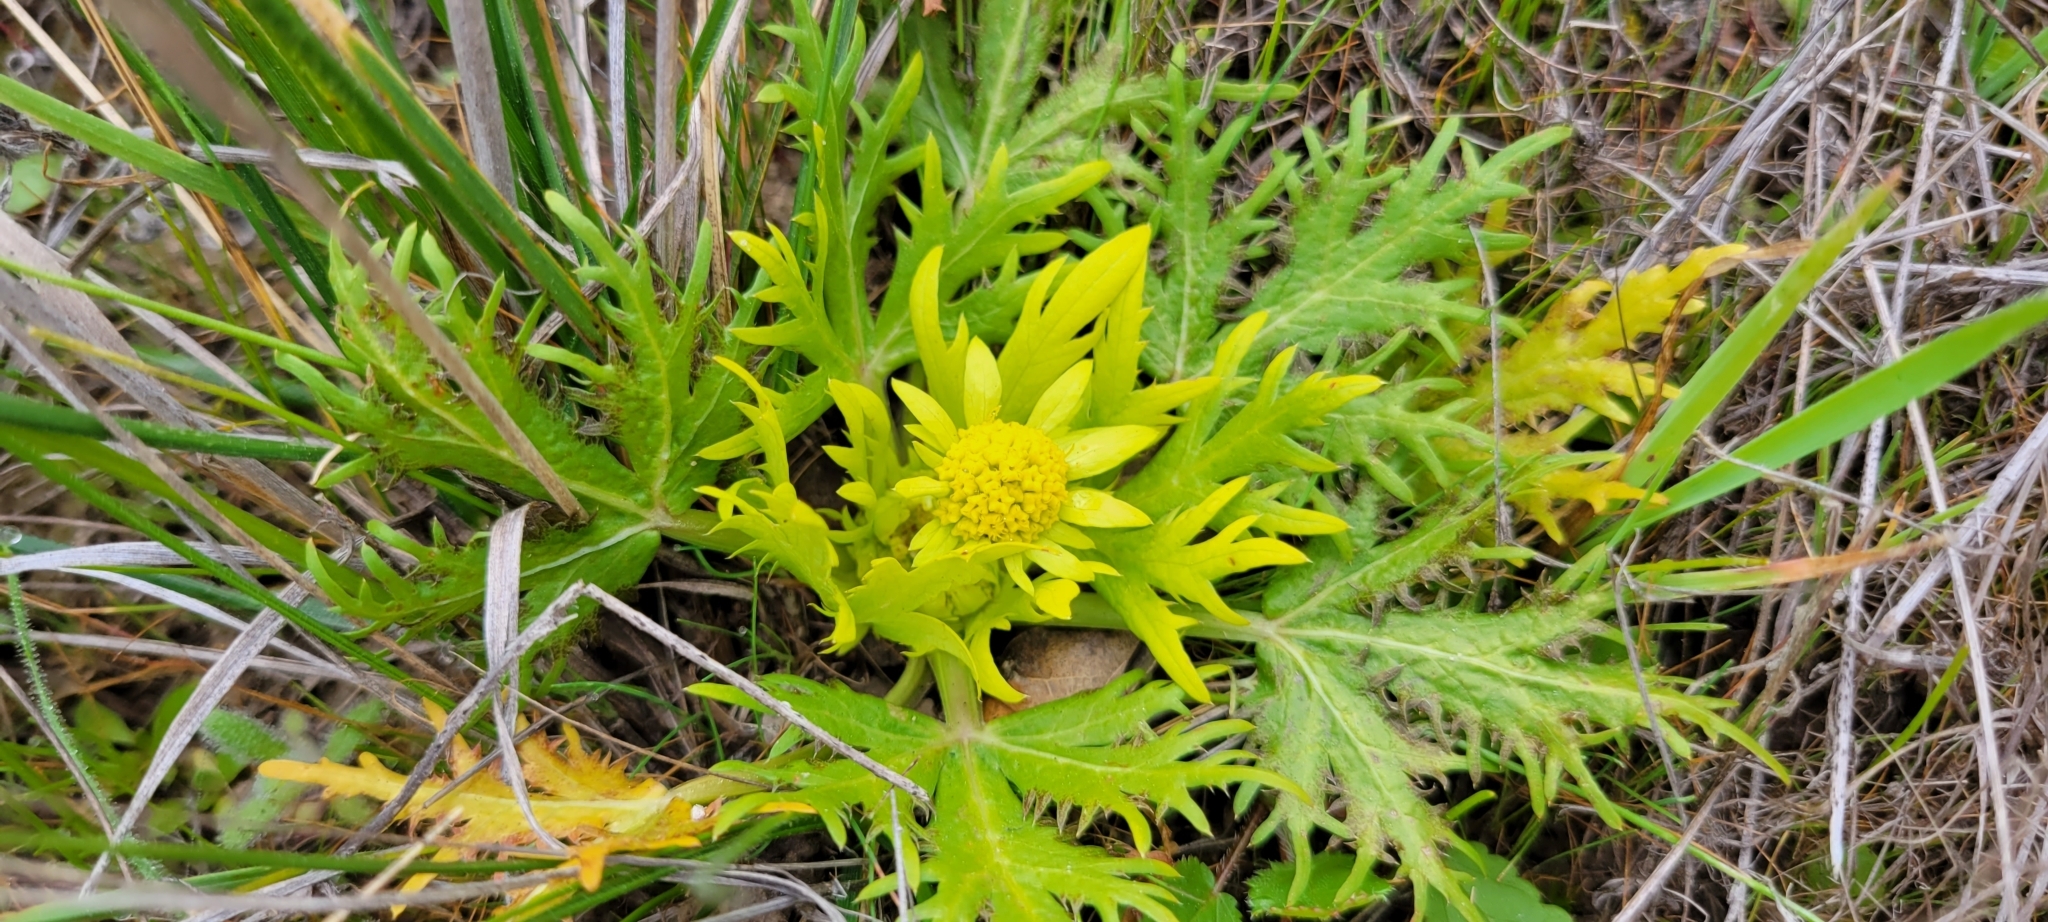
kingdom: Plantae
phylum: Tracheophyta
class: Magnoliopsida
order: Apiales
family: Apiaceae
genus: Sanicula
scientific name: Sanicula arctopoides
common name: Footsteps-of-spring
